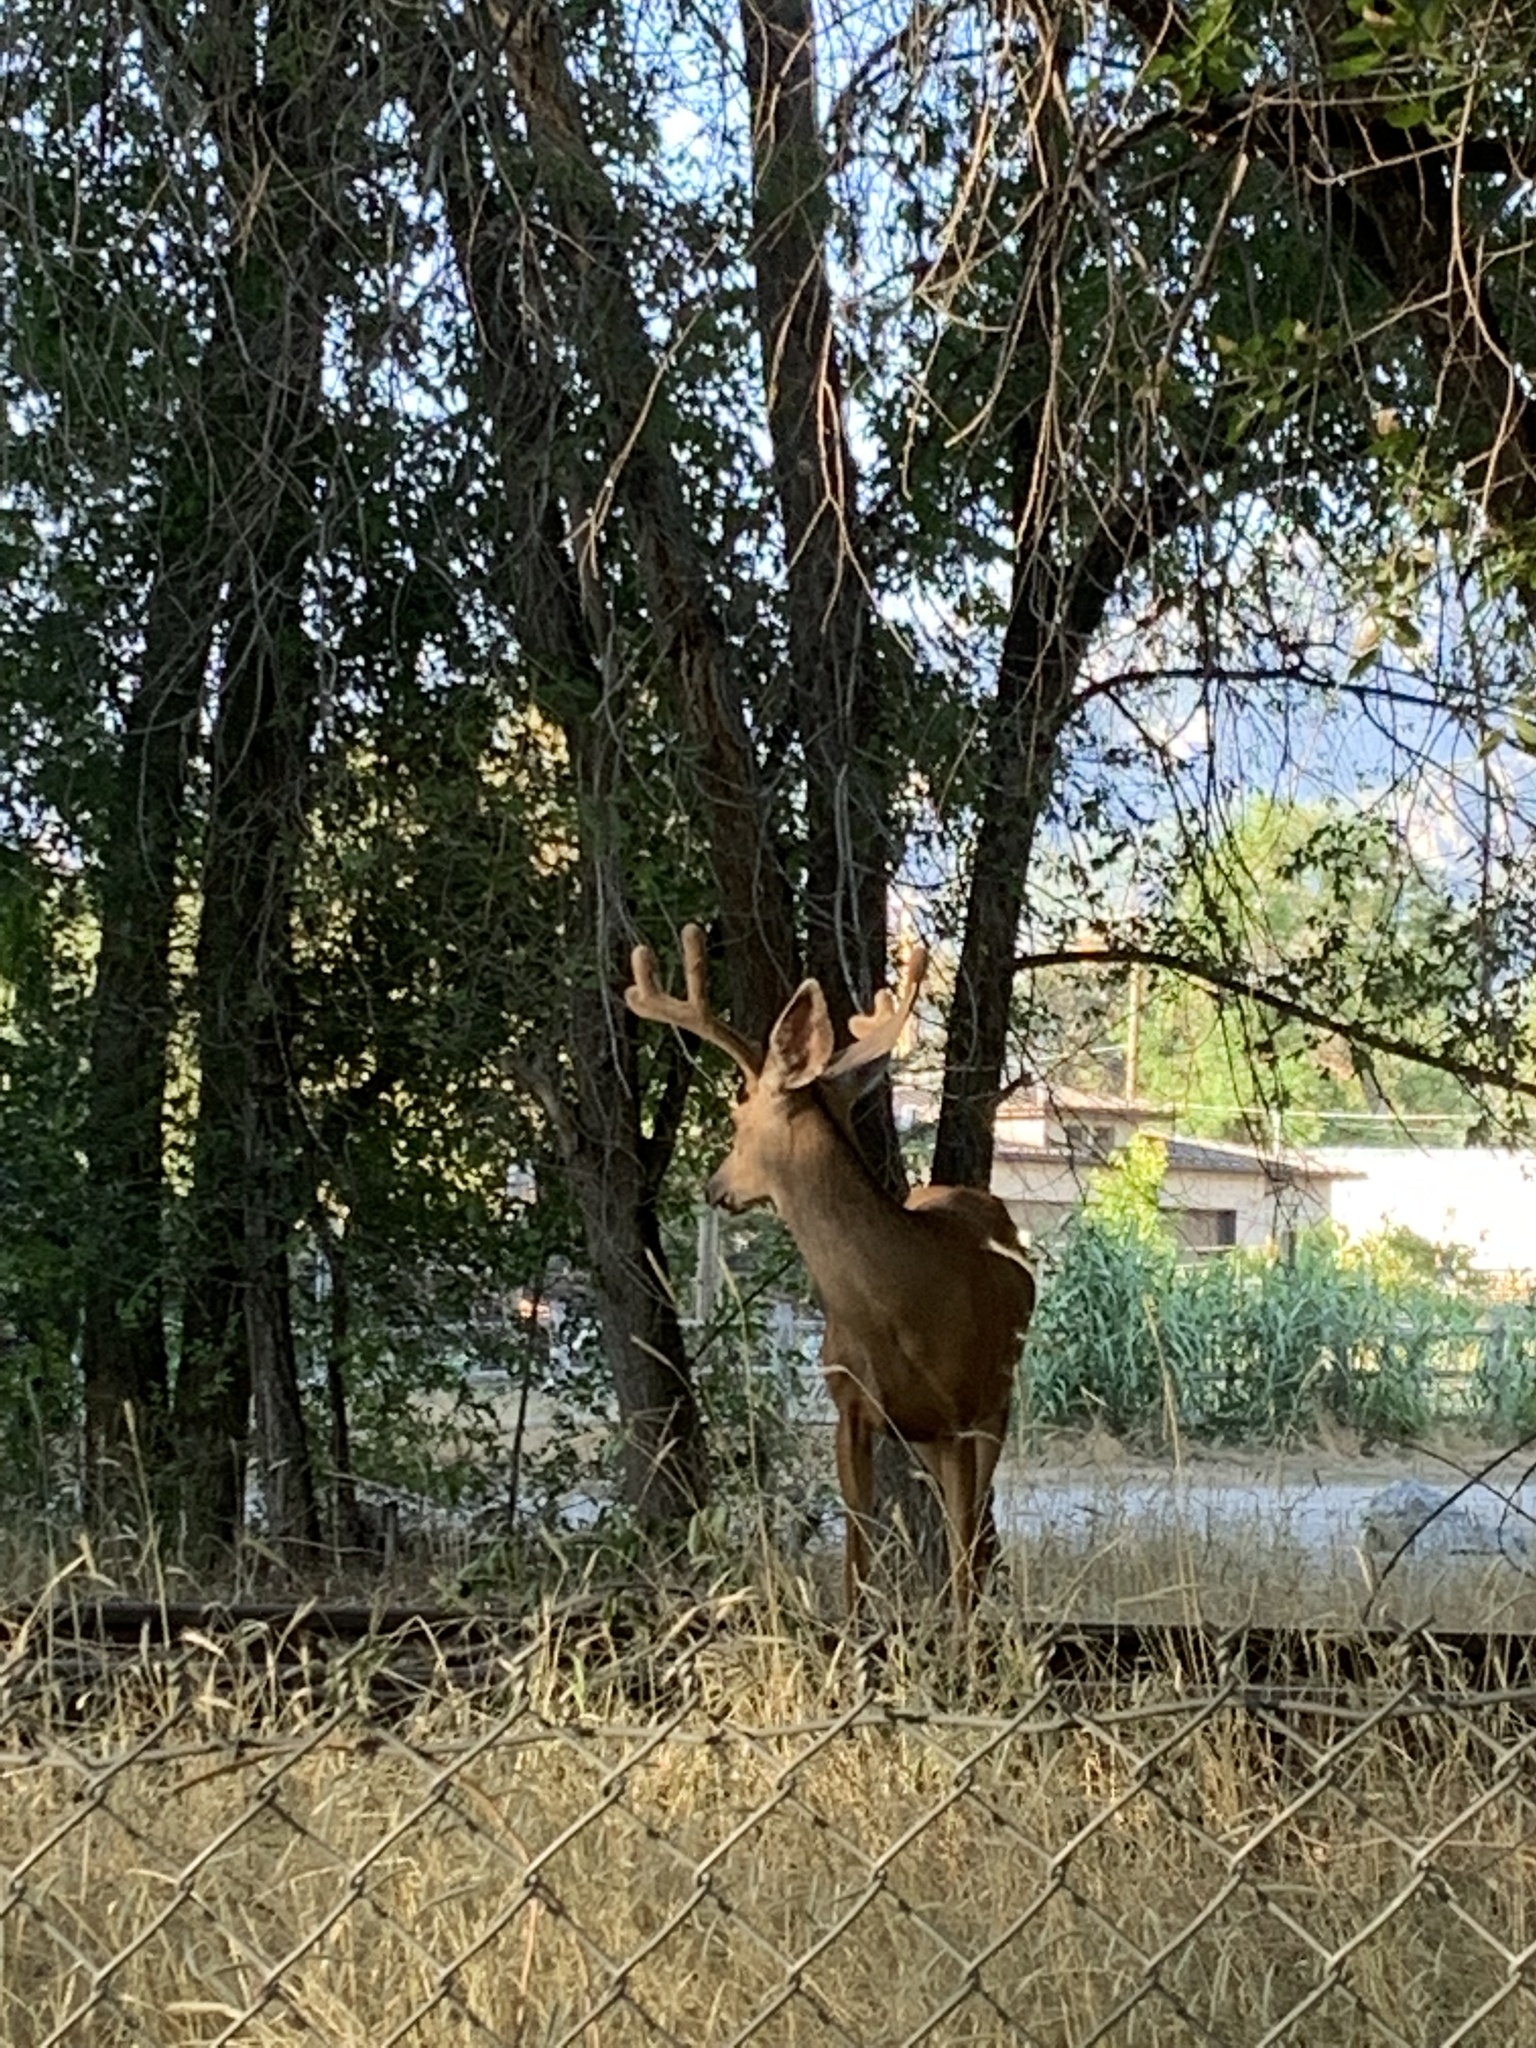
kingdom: Animalia
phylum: Chordata
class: Mammalia
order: Artiodactyla
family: Cervidae
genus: Odocoileus
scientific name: Odocoileus hemionus
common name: Mule deer
